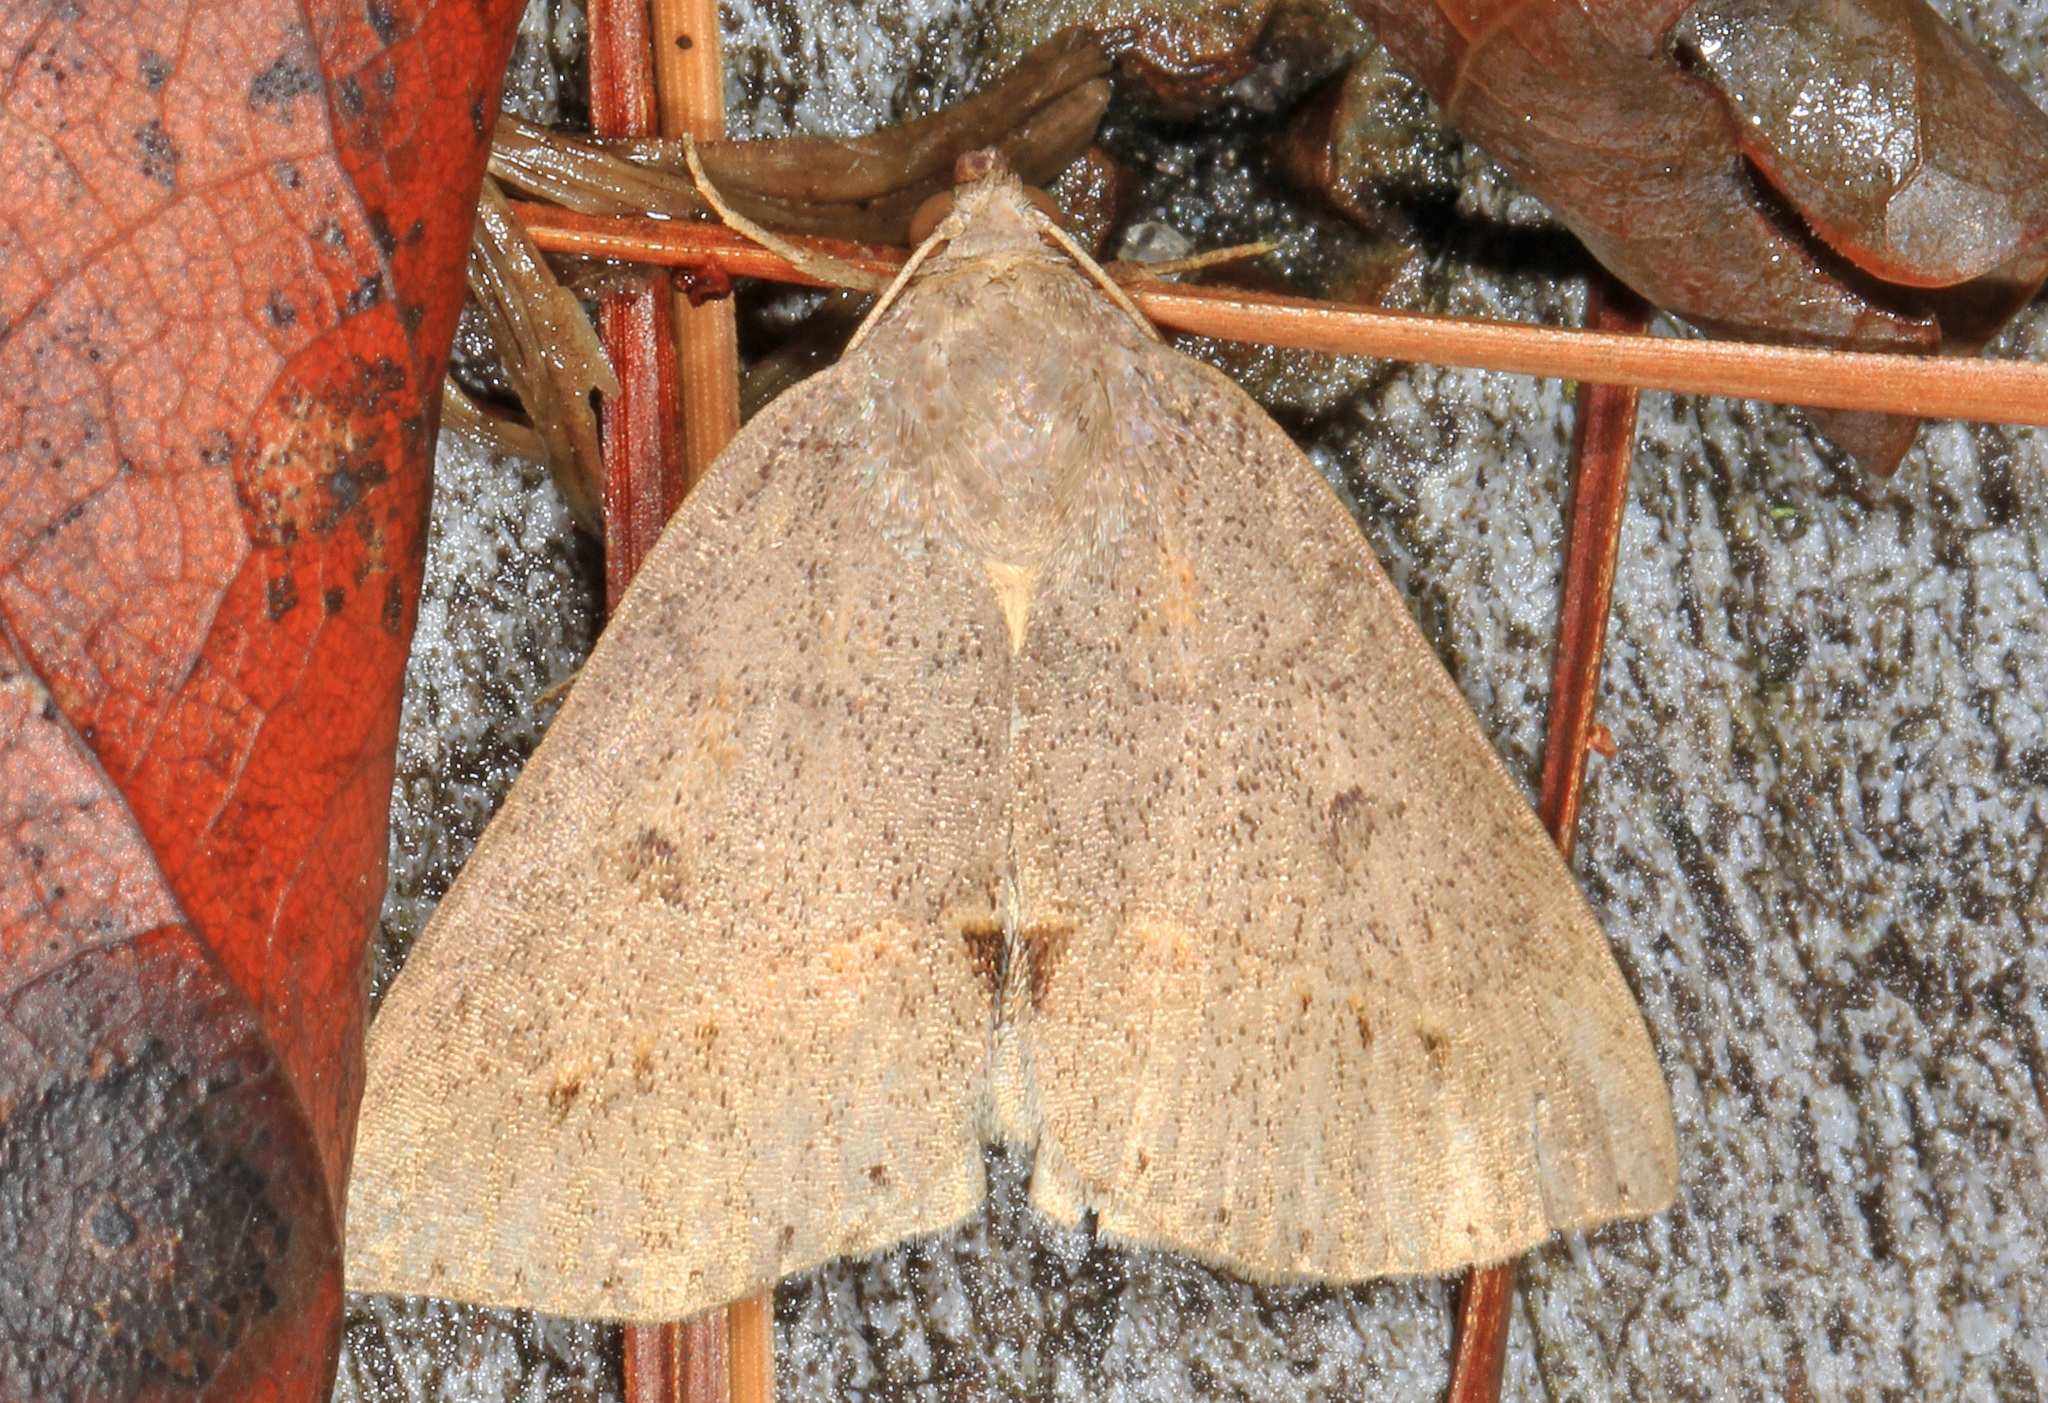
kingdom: Animalia
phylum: Arthropoda
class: Insecta
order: Lepidoptera
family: Erebidae
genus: Argyrostrotis
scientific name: Argyrostrotis flavistriaria
